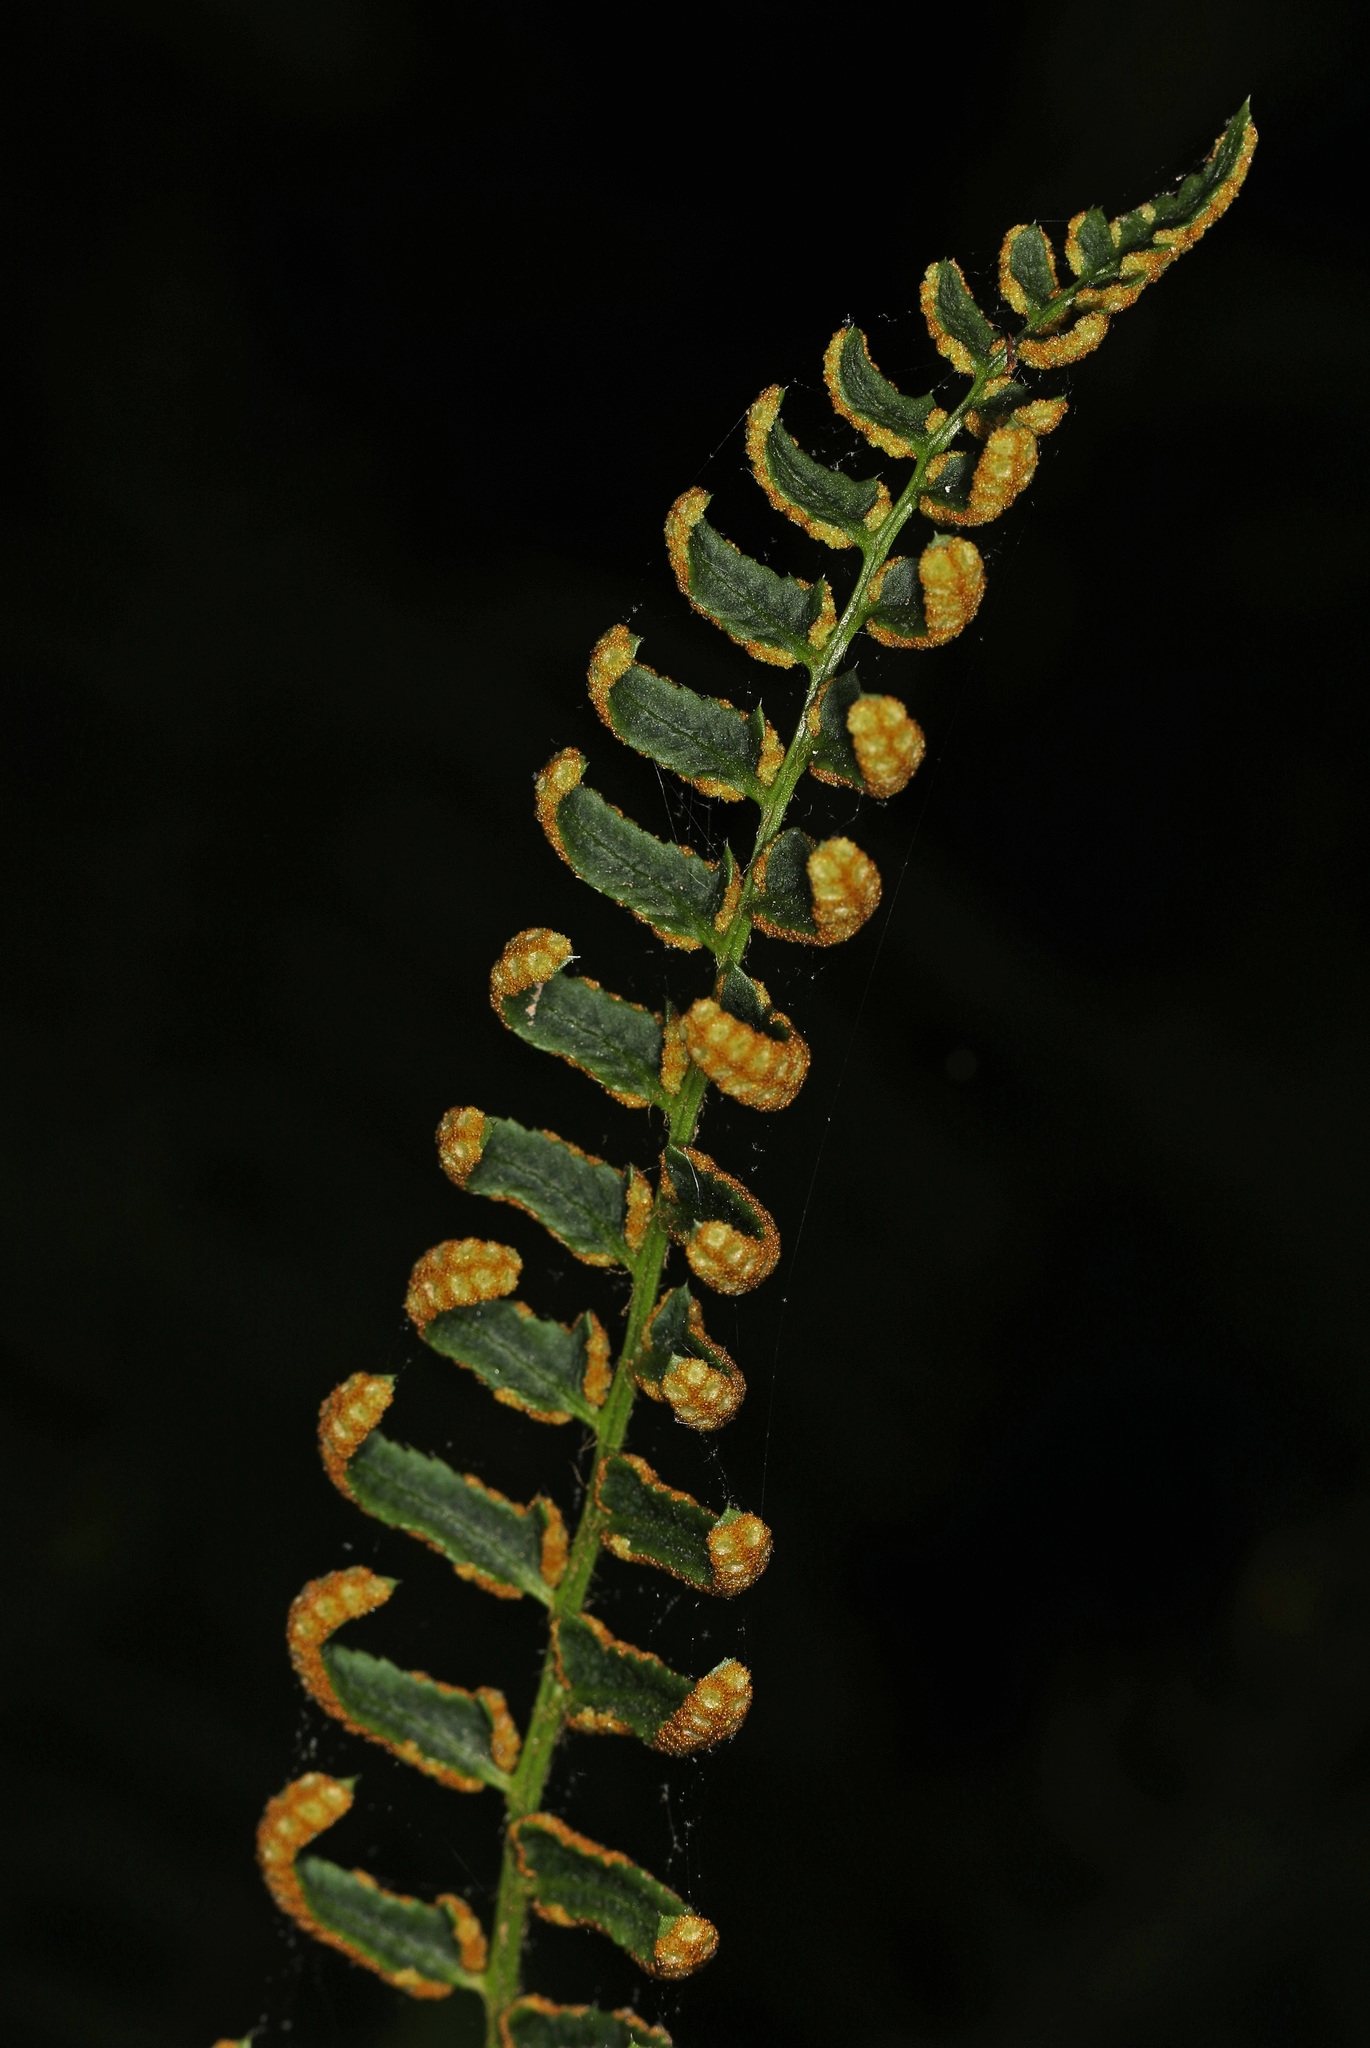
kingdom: Plantae
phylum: Tracheophyta
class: Polypodiopsida
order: Polypodiales
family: Dryopteridaceae
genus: Polystichum
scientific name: Polystichum acrostichoides
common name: Christmas fern
